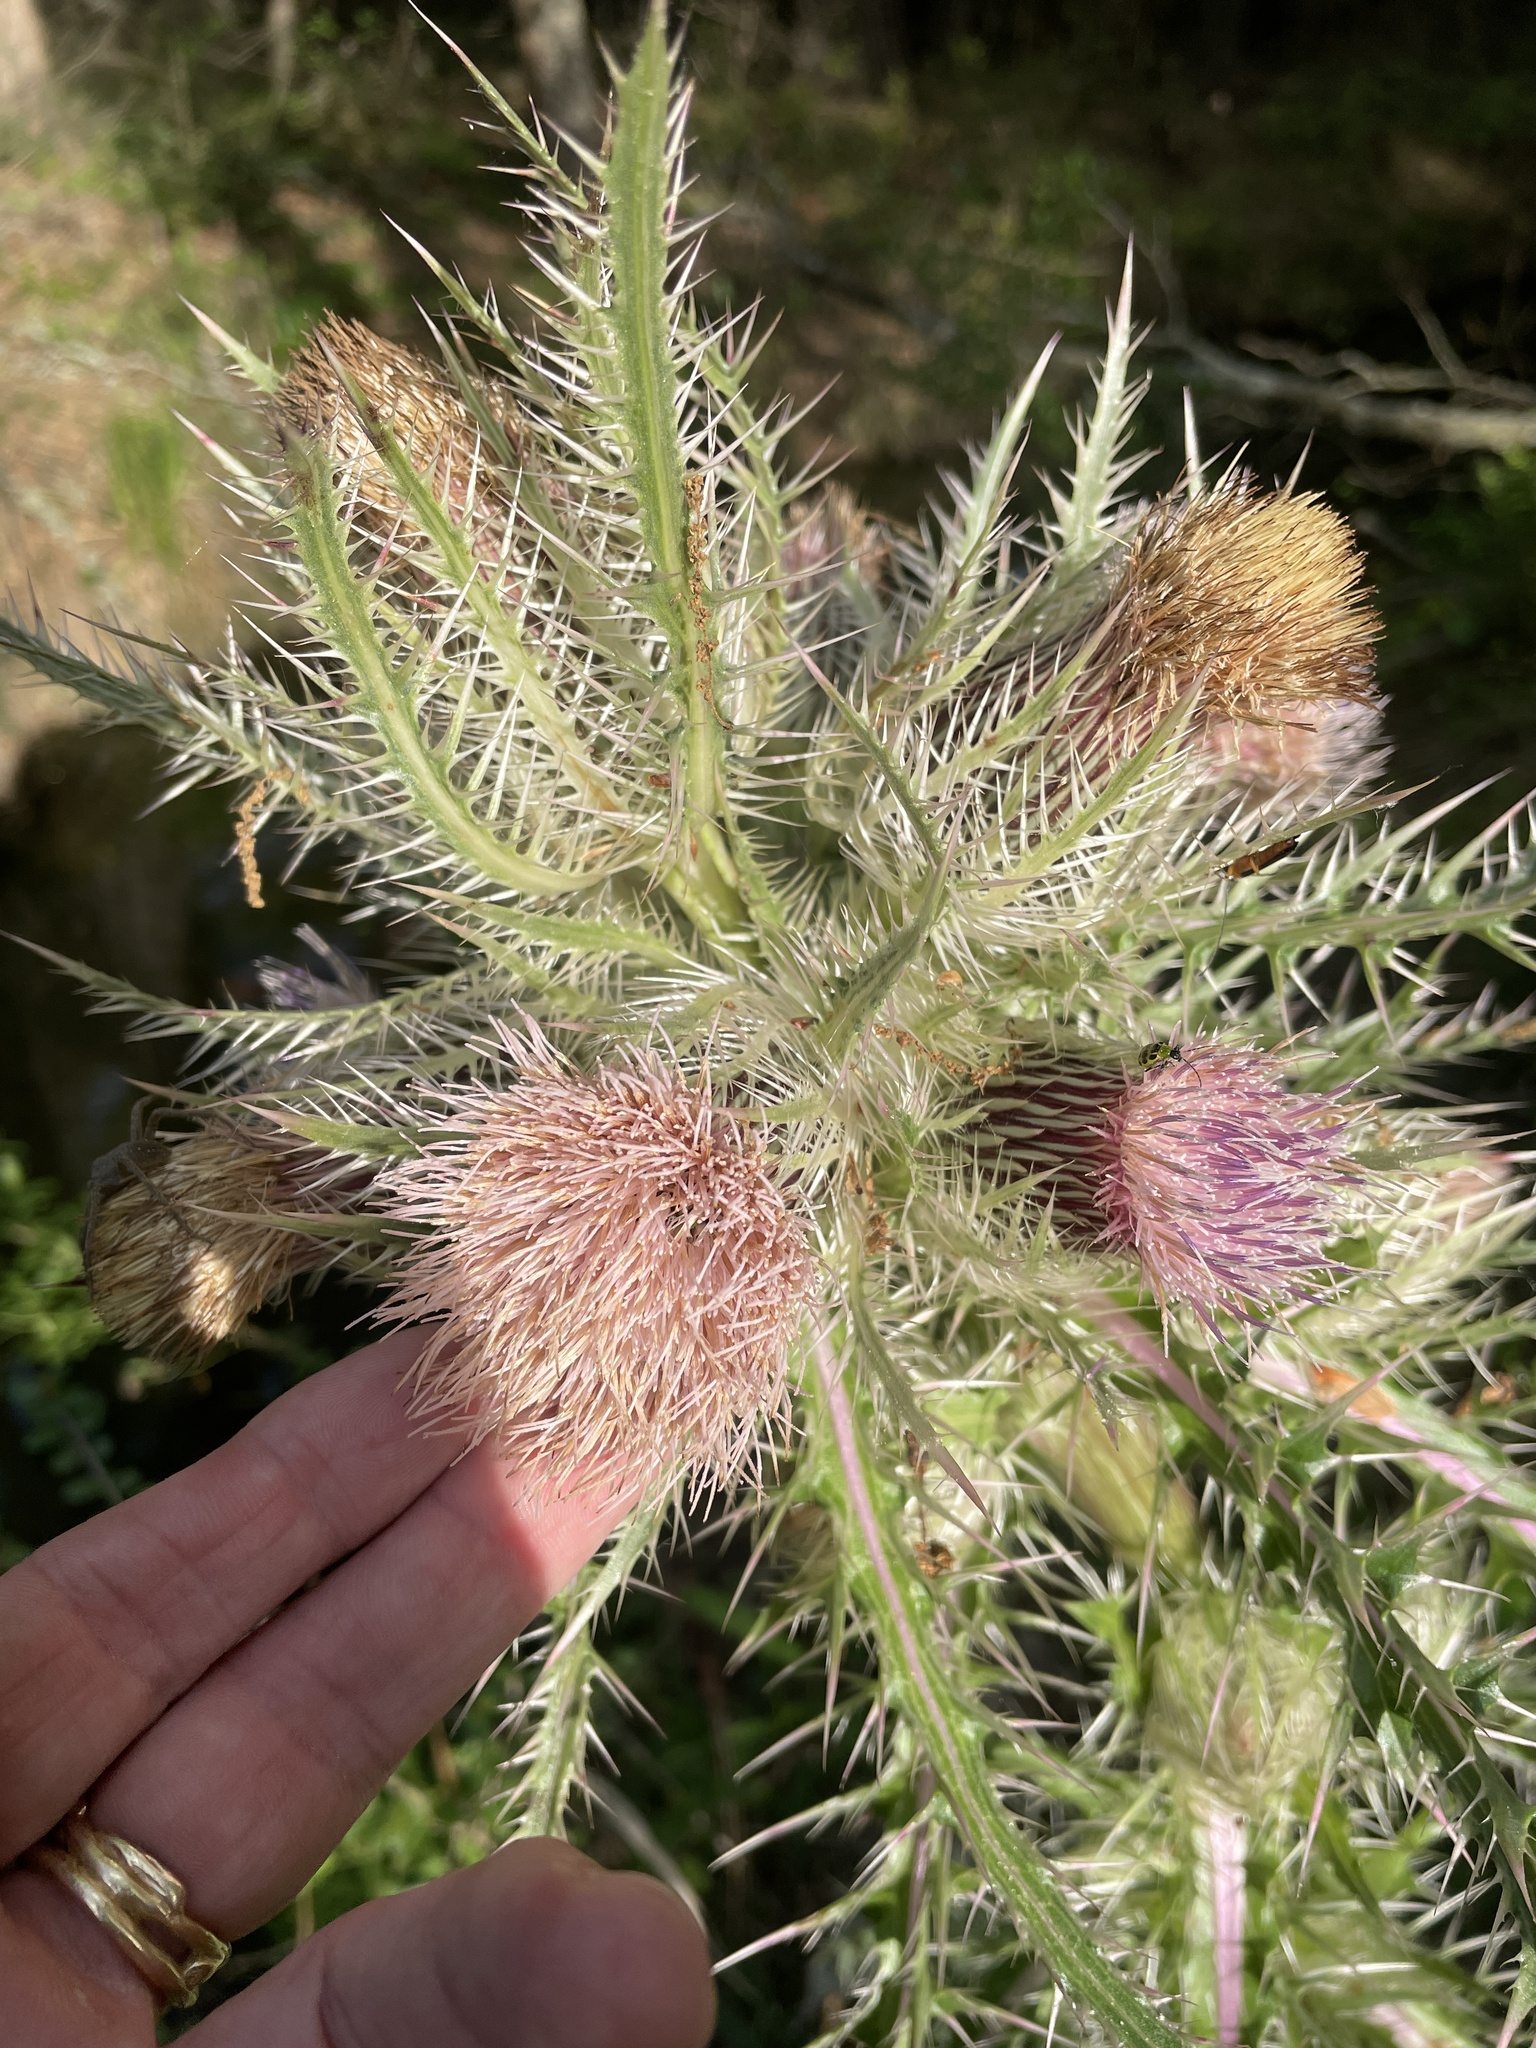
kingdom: Plantae
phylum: Tracheophyta
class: Magnoliopsida
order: Asterales
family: Asteraceae
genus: Cirsium
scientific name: Cirsium horridulum
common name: Bristly thistle
